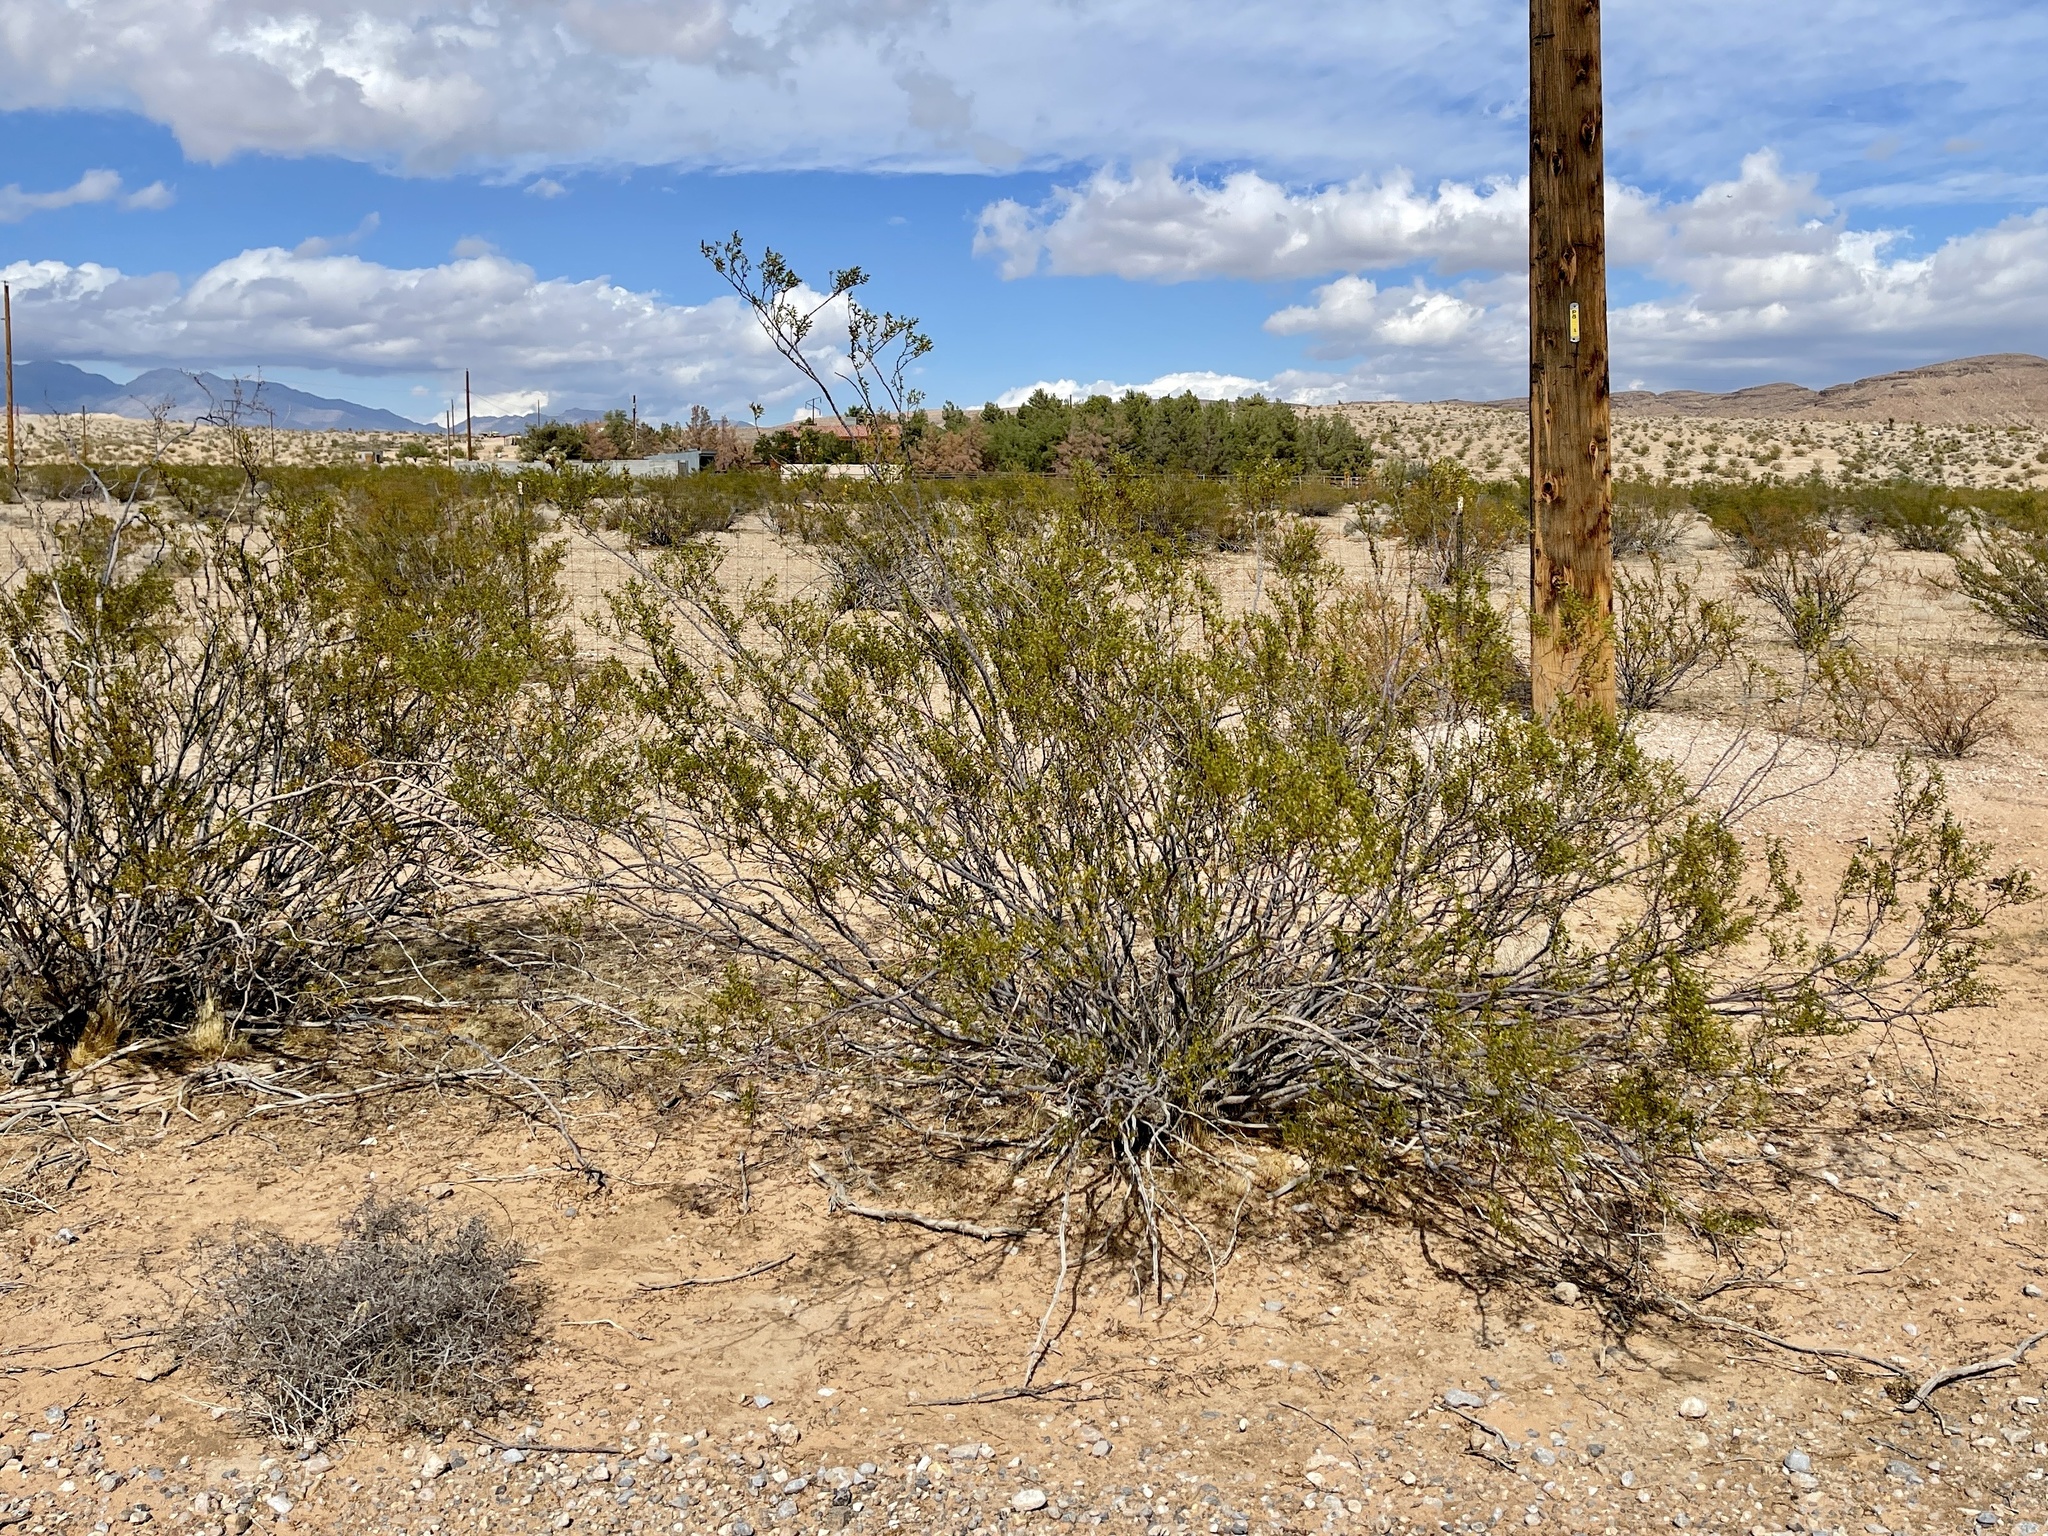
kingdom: Plantae
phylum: Tracheophyta
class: Magnoliopsida
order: Zygophyllales
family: Zygophyllaceae
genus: Larrea
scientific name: Larrea tridentata
